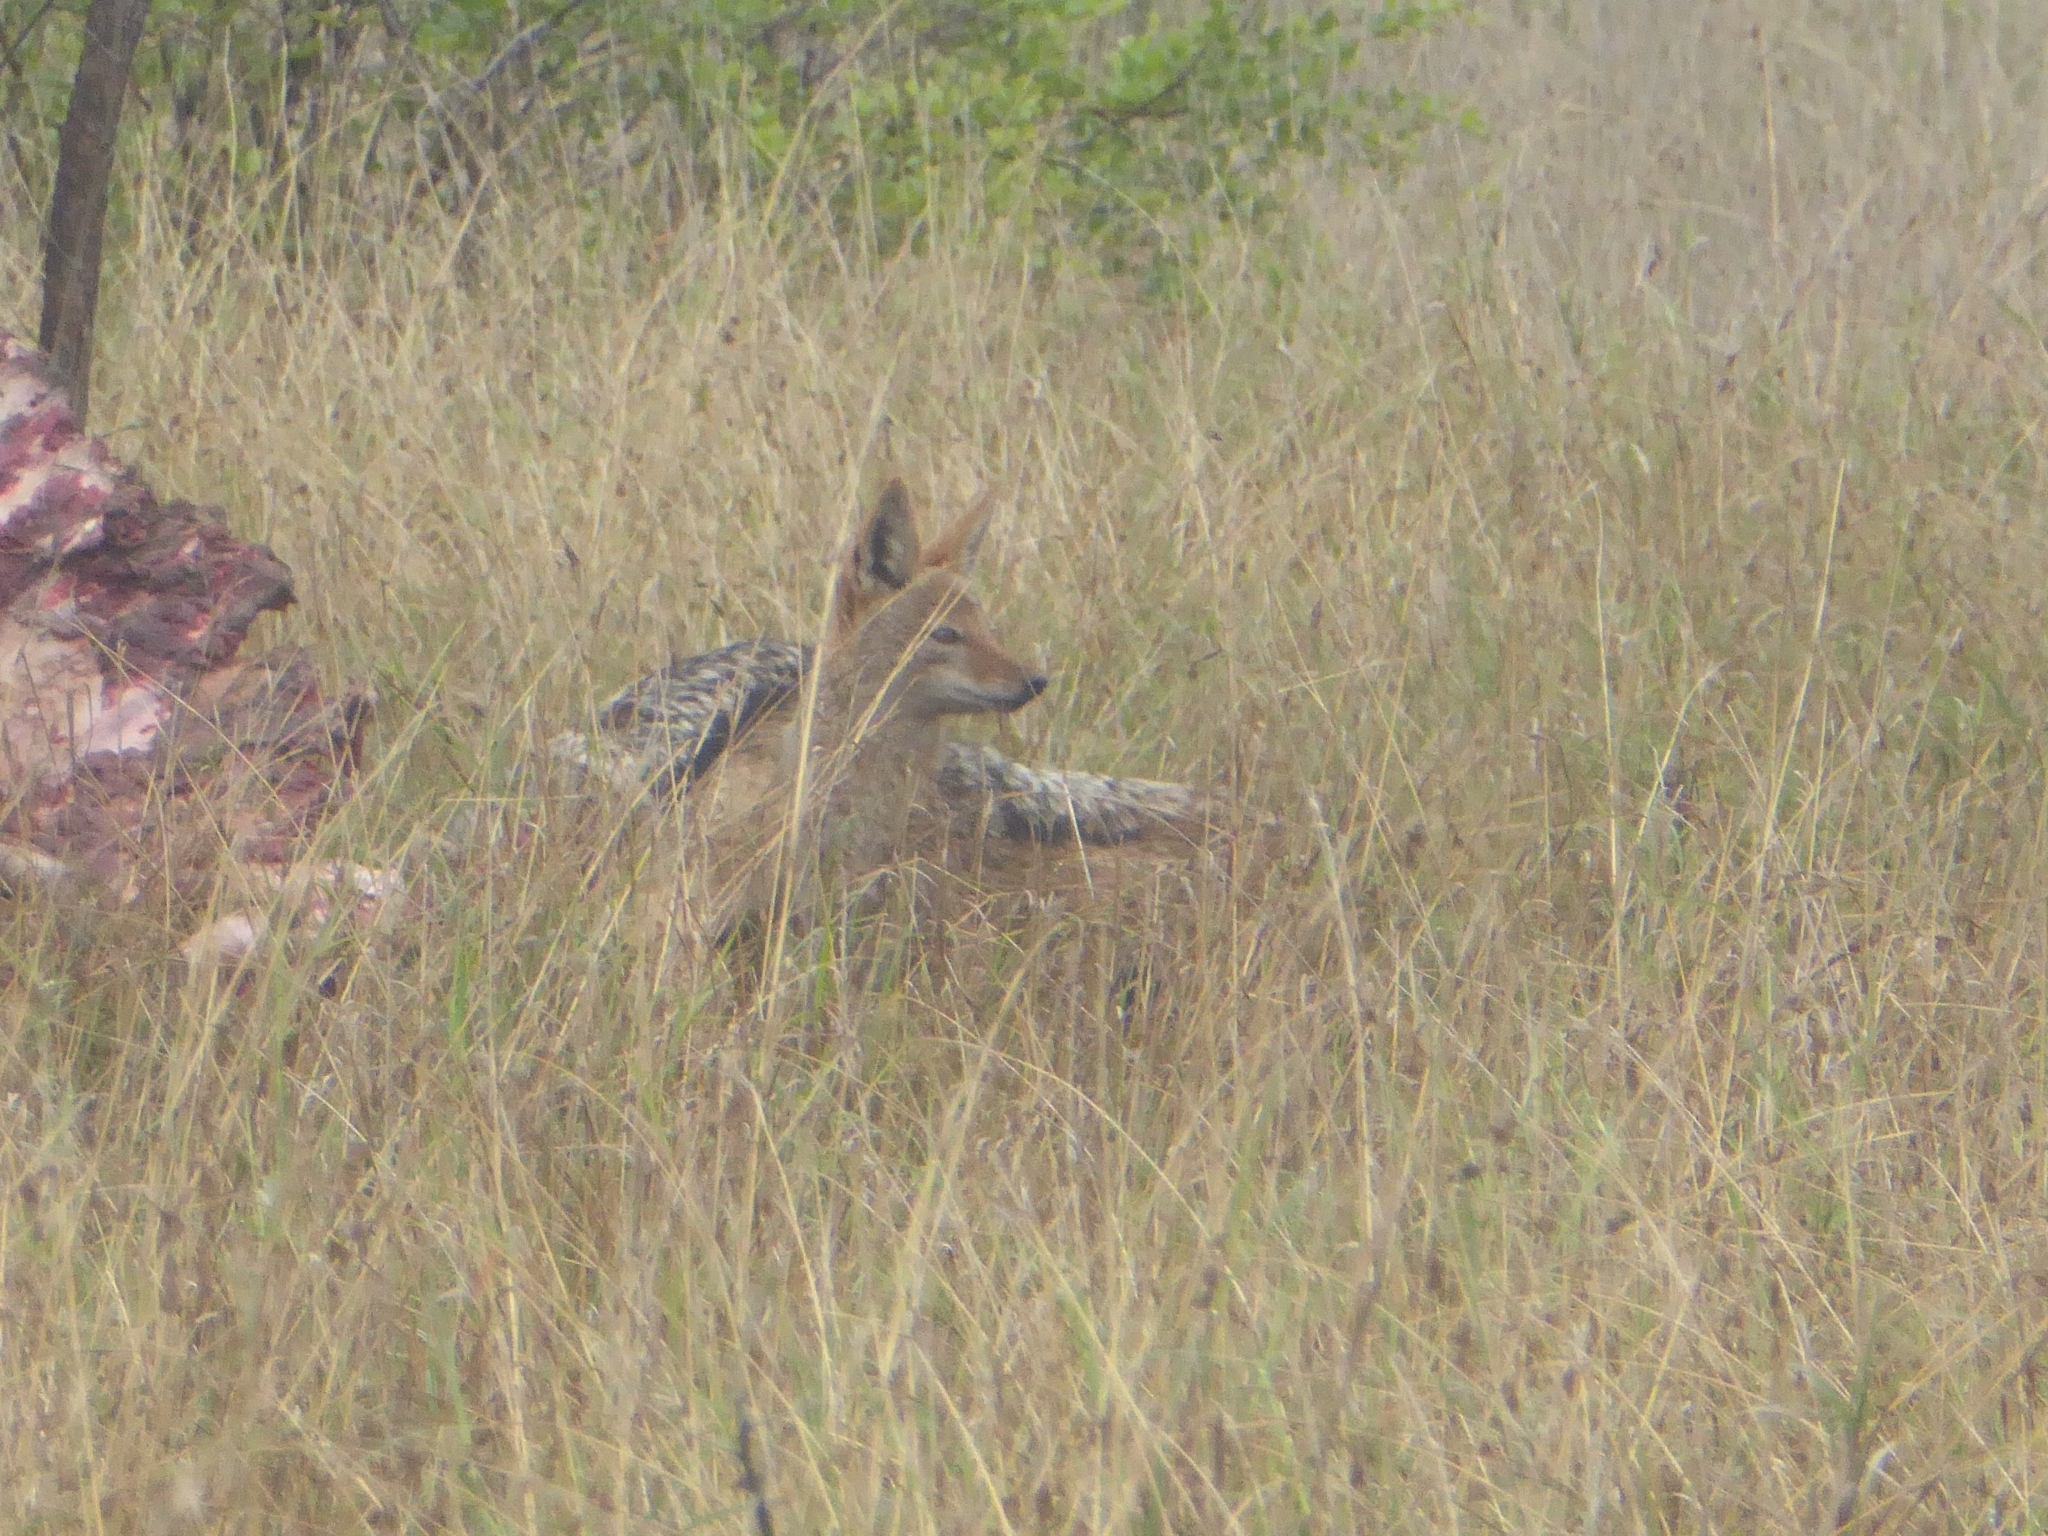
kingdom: Animalia
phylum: Chordata
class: Mammalia
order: Carnivora
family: Canidae
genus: Lupulella
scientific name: Lupulella
